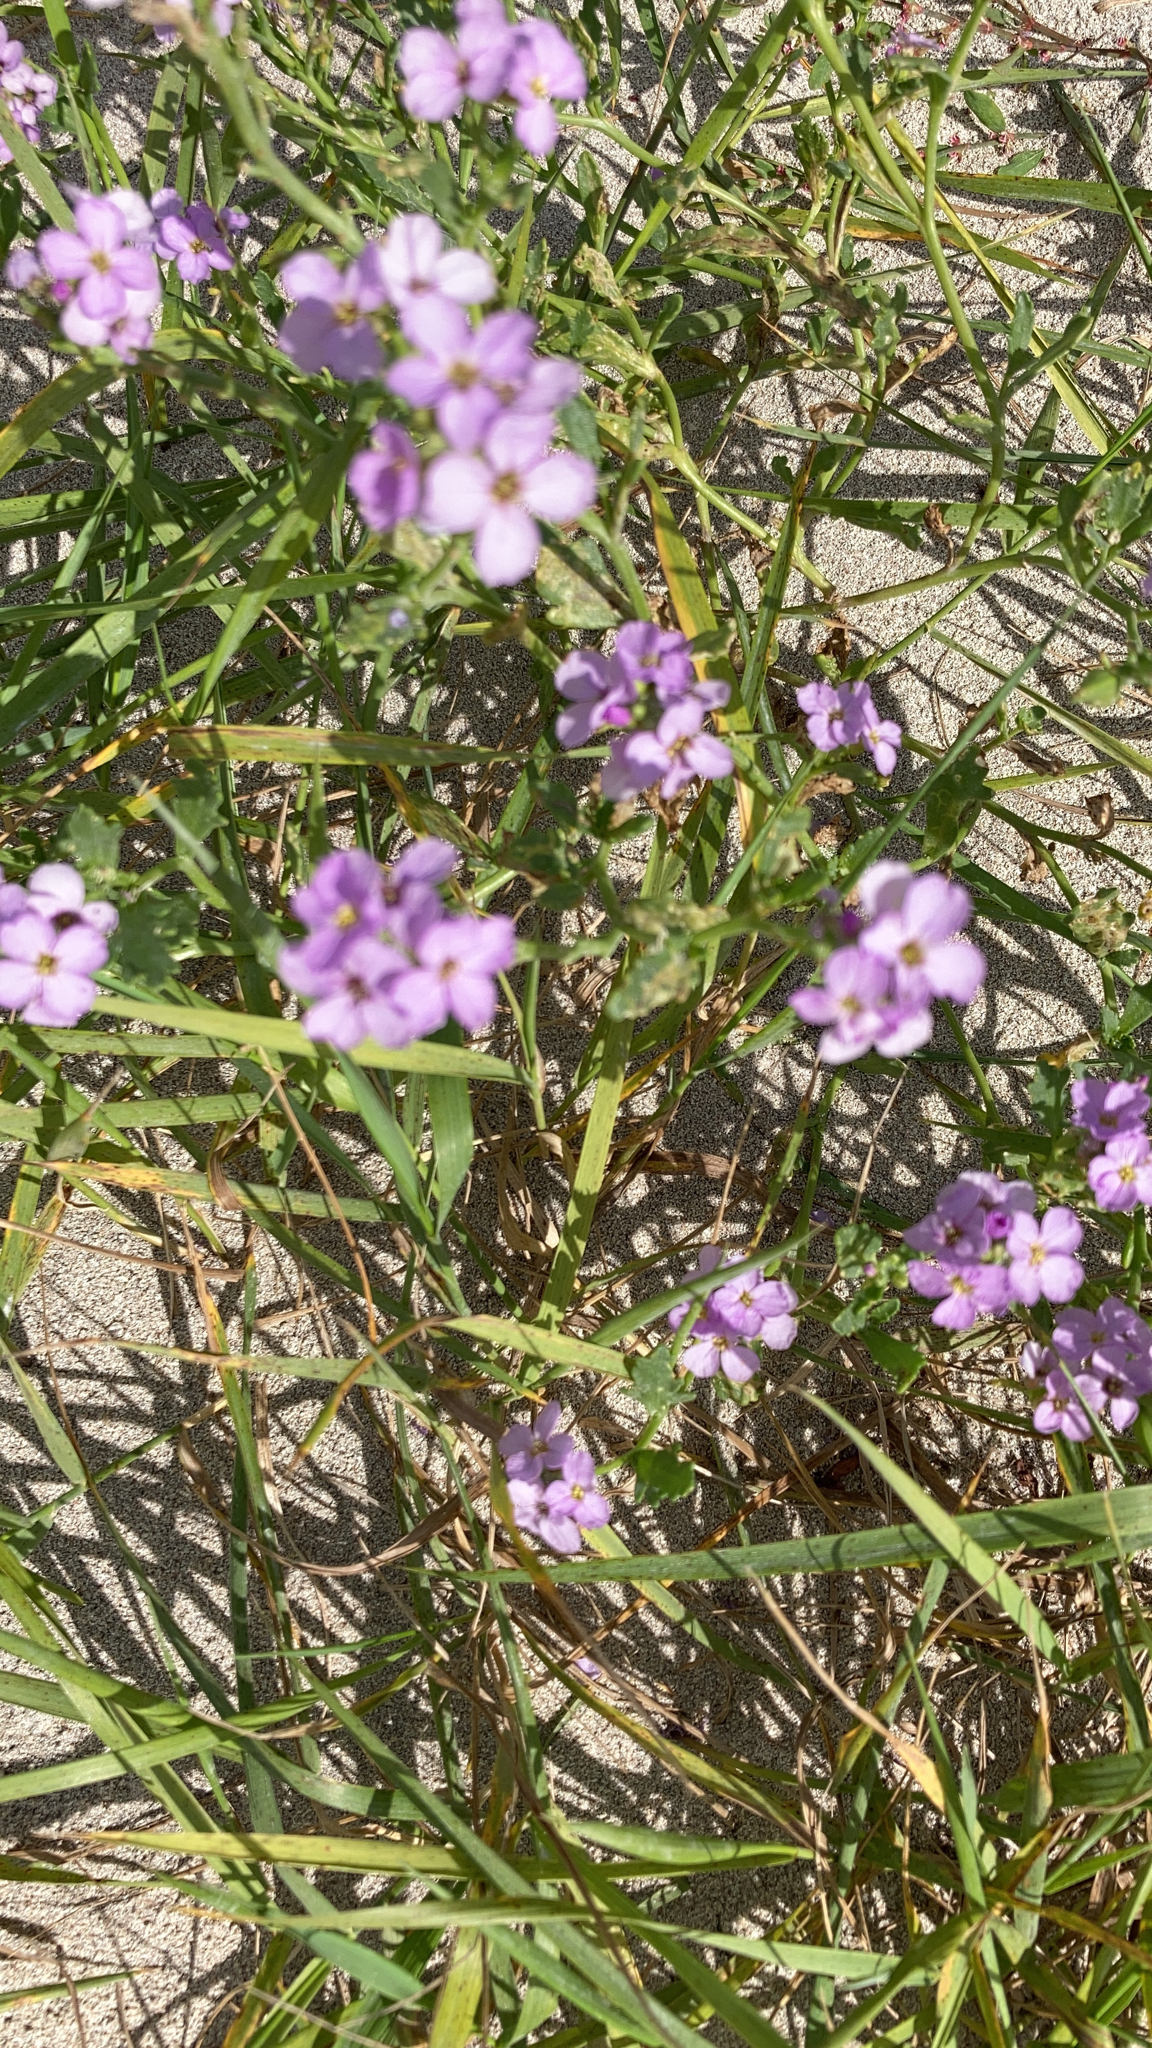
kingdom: Plantae
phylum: Tracheophyta
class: Magnoliopsida
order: Brassicales
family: Brassicaceae
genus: Cakile
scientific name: Cakile maritima
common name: Sea rocket
